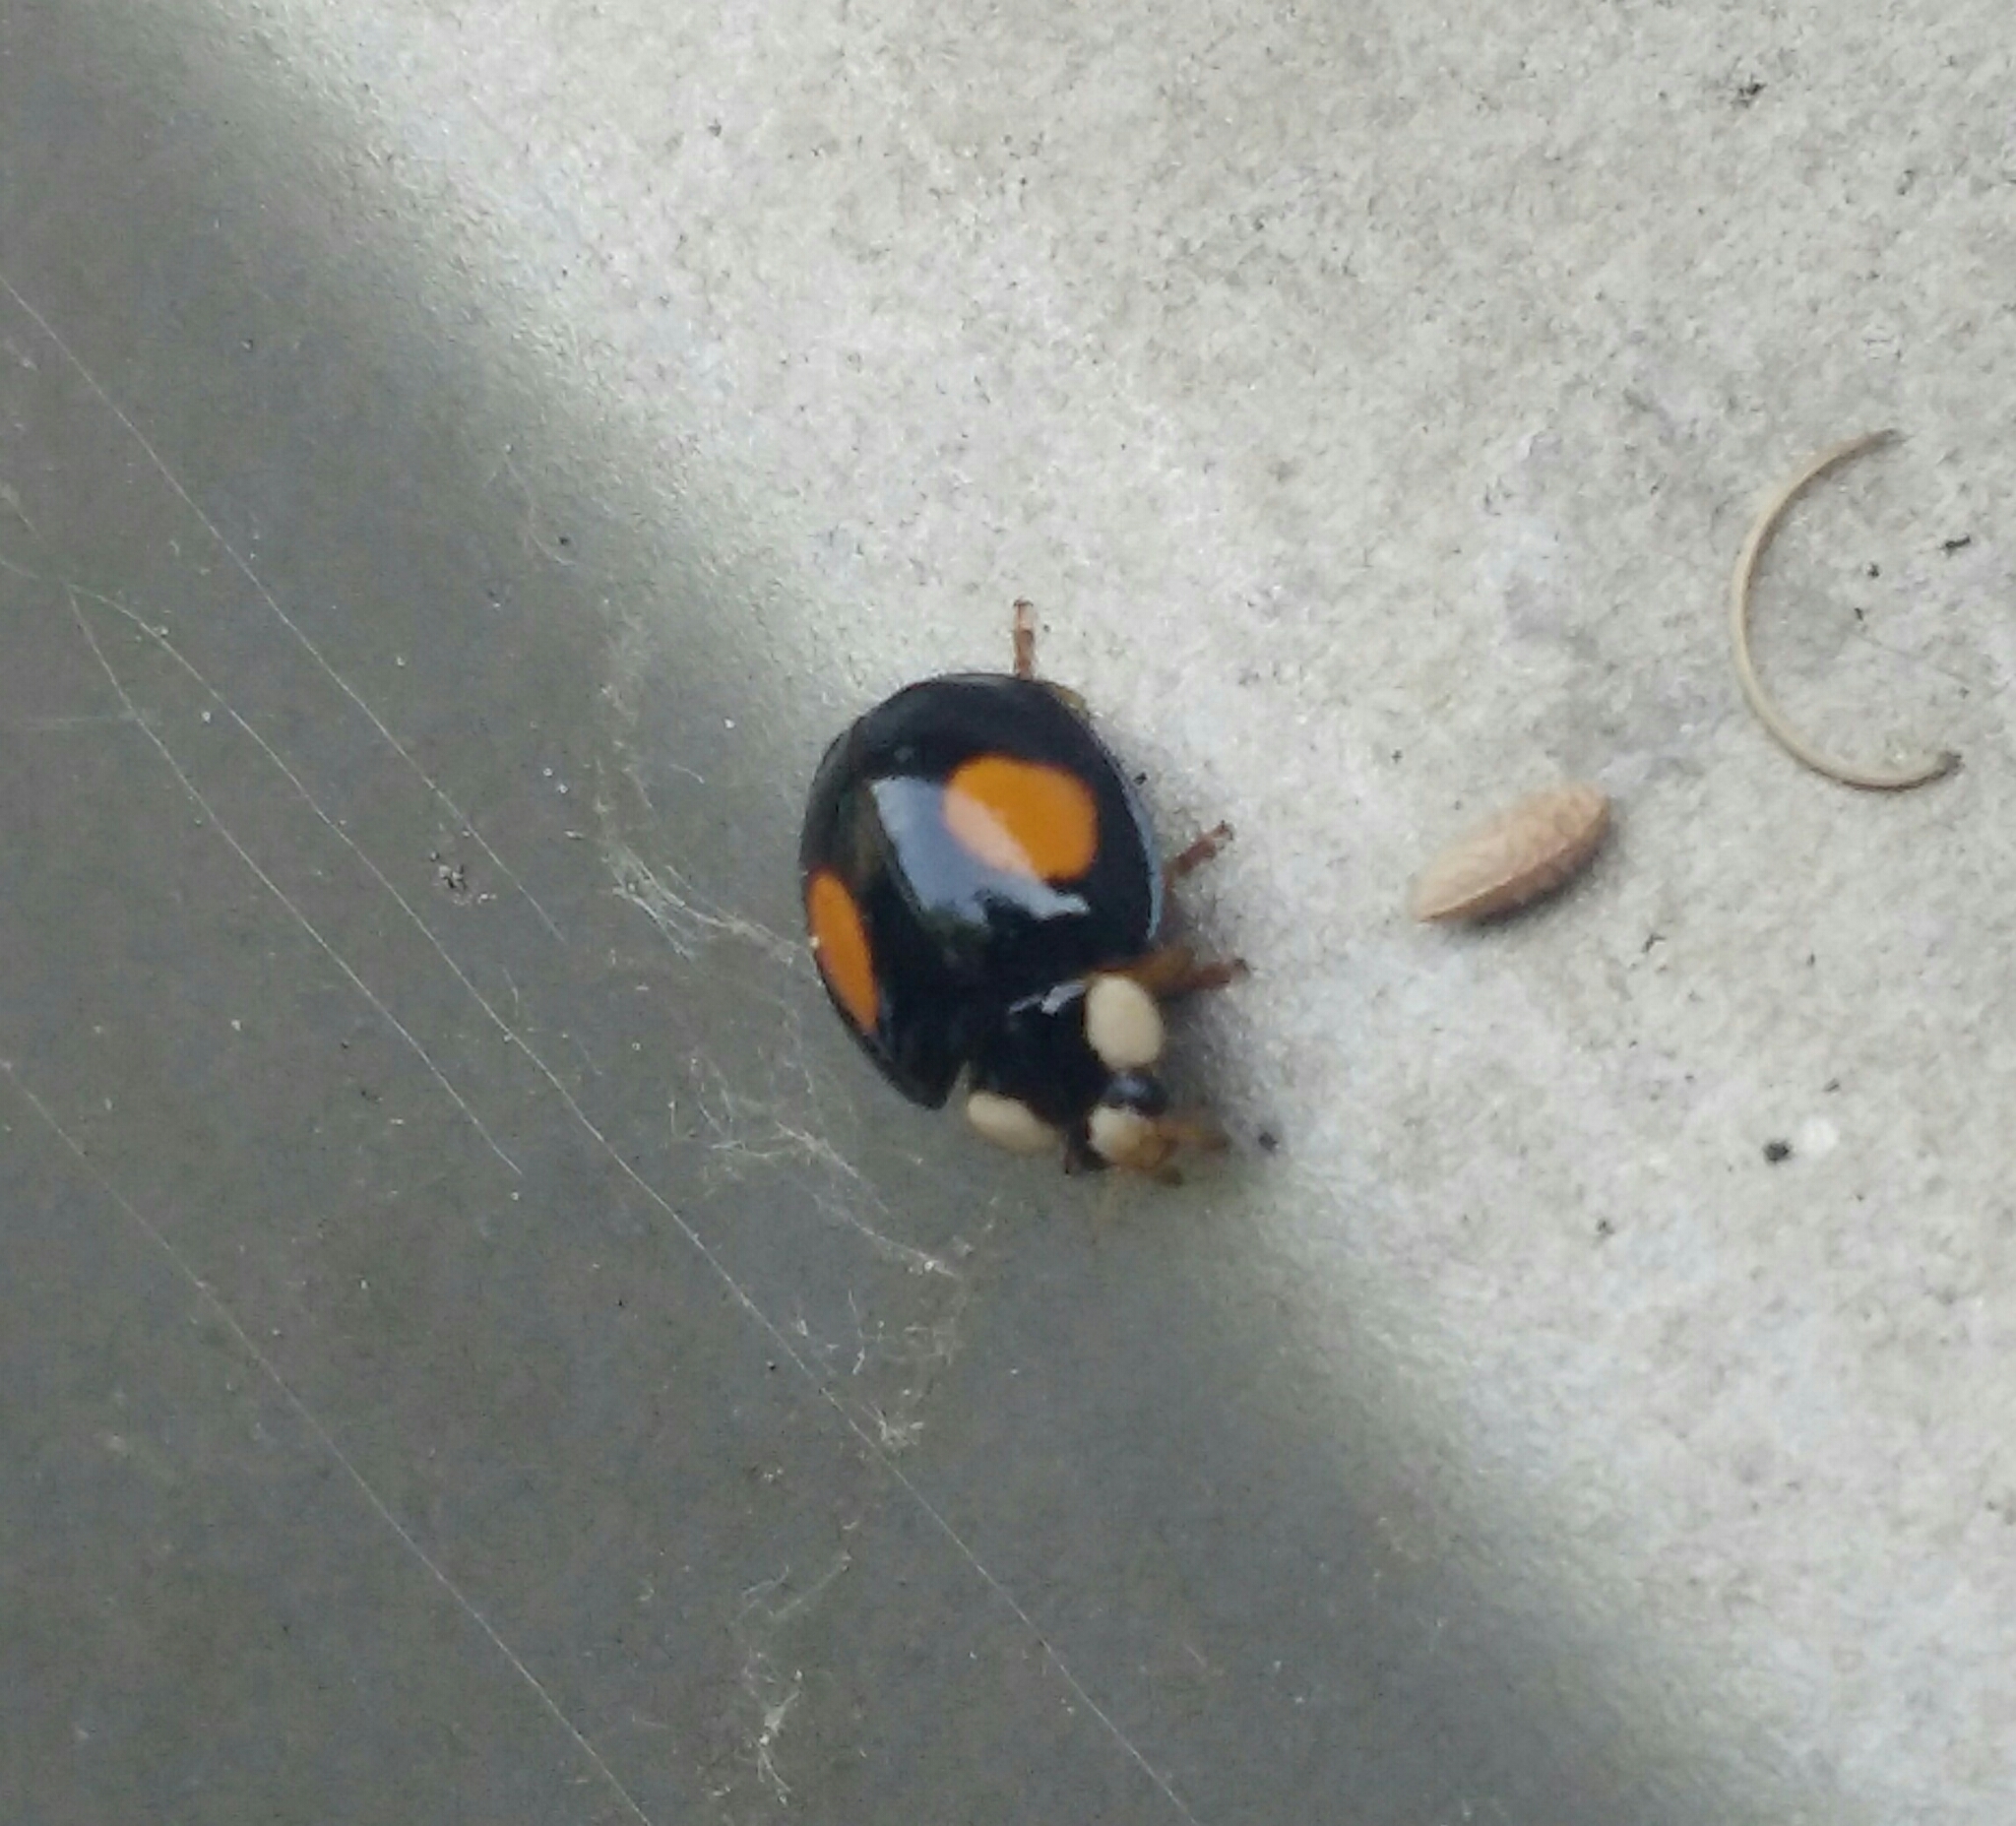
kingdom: Animalia
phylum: Arthropoda
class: Insecta
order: Coleoptera
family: Coccinellidae
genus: Harmonia
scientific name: Harmonia axyridis
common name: Harlequin ladybird
